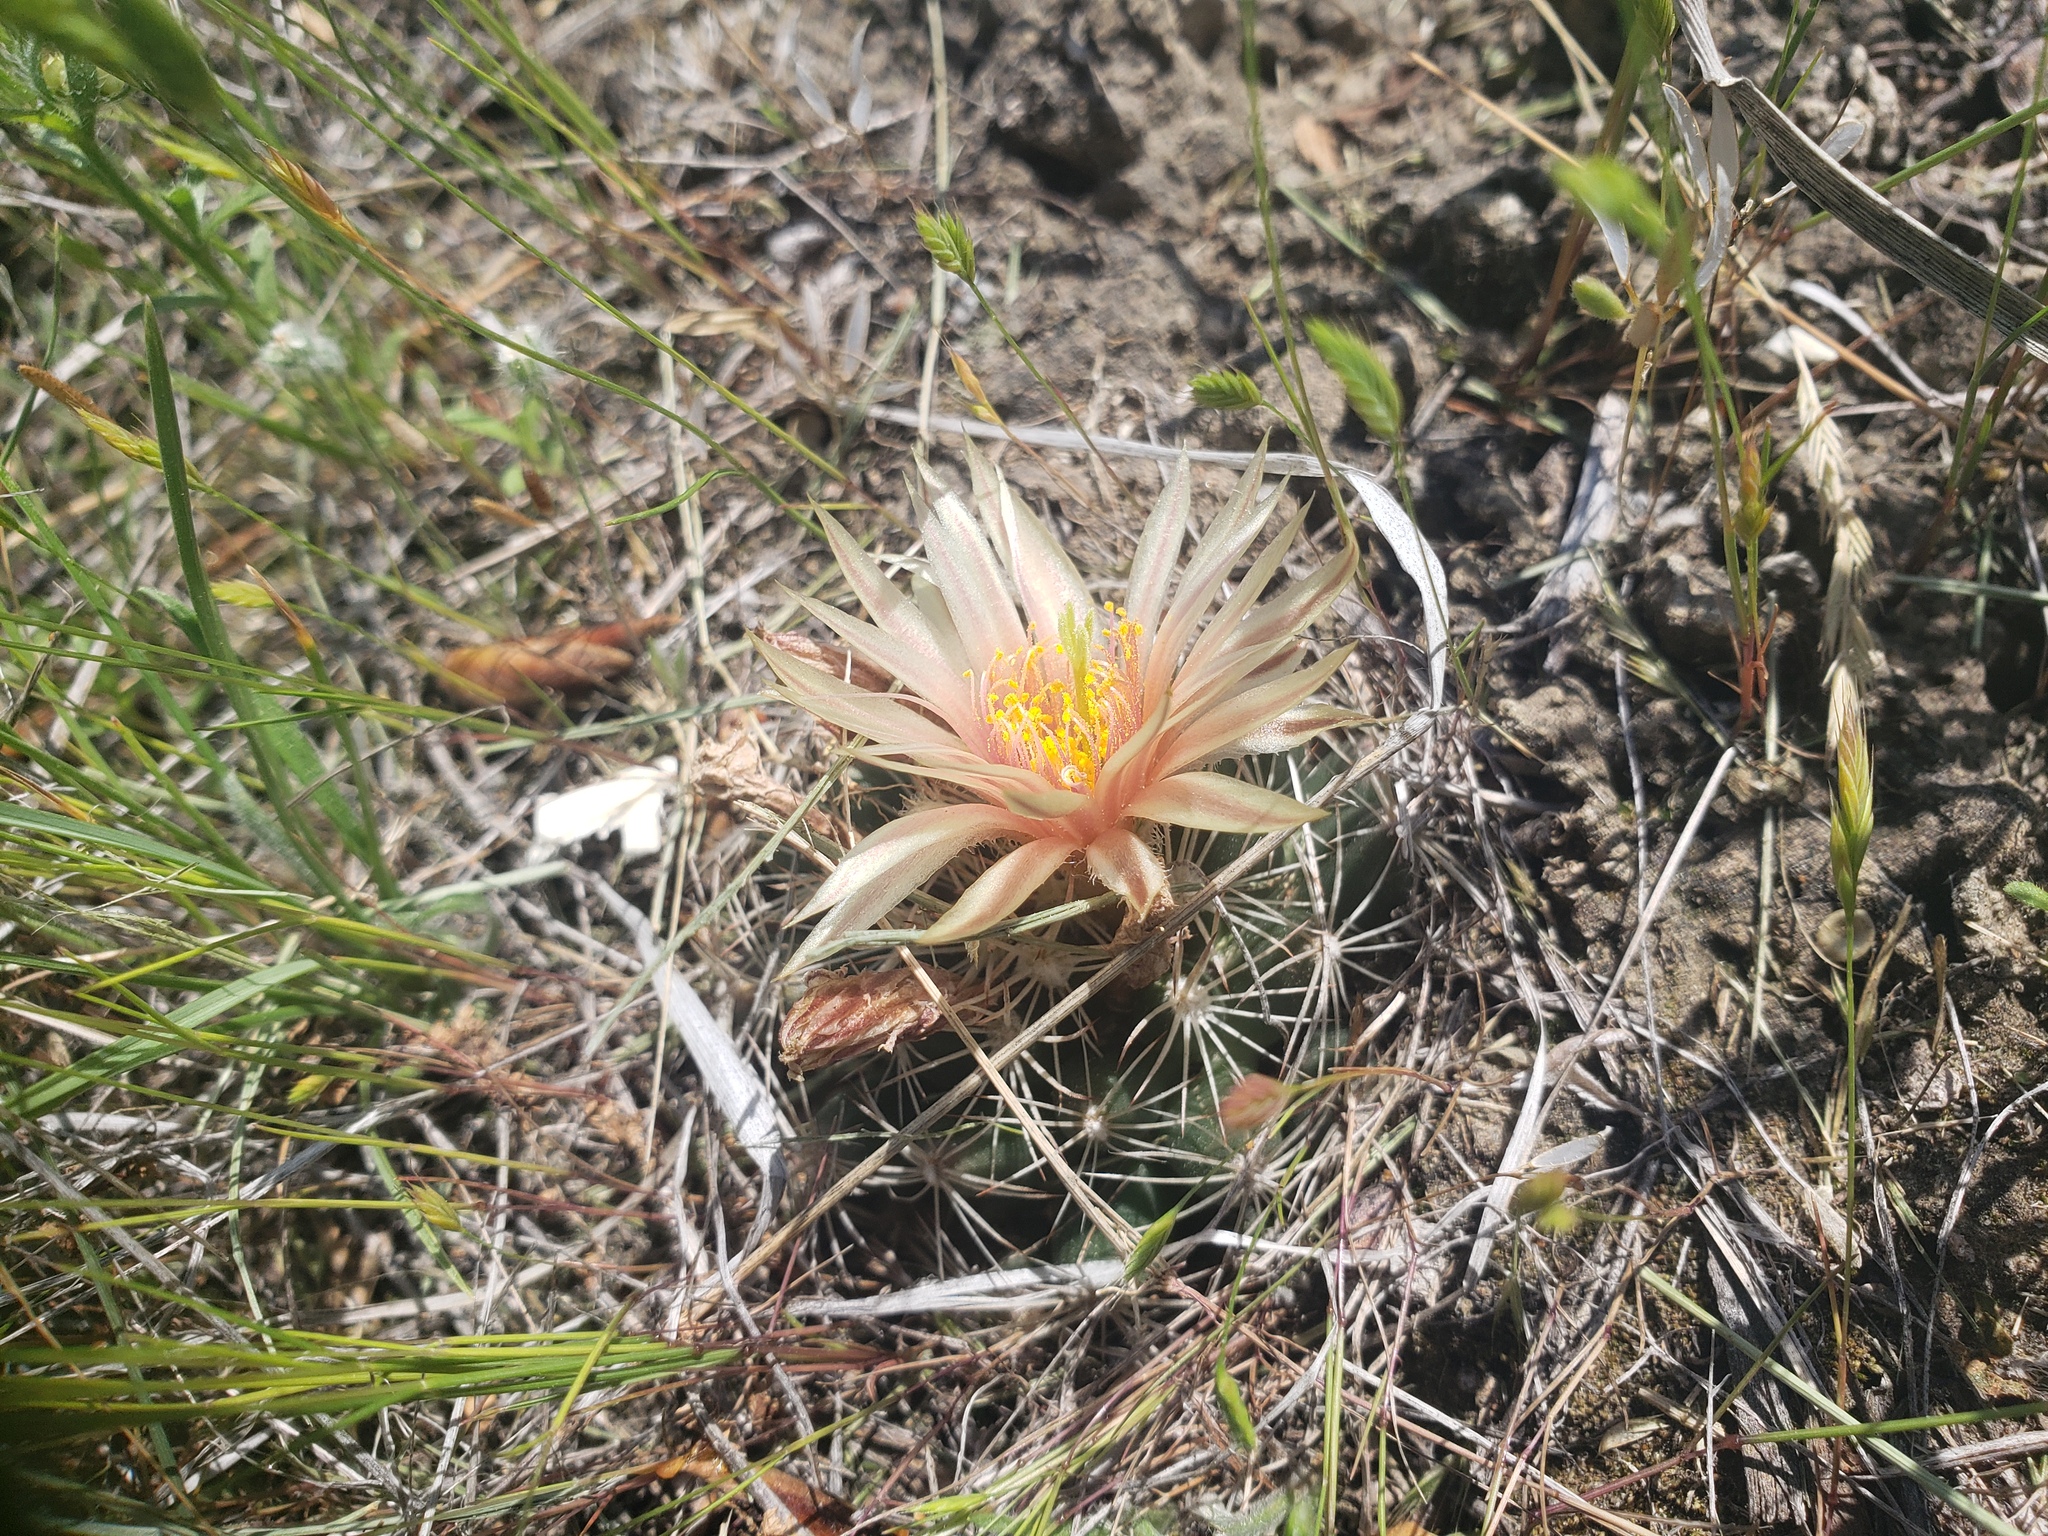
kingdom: Plantae
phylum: Tracheophyta
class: Magnoliopsida
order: Caryophyllales
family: Cactaceae
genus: Pelecyphora
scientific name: Pelecyphora missouriensis
